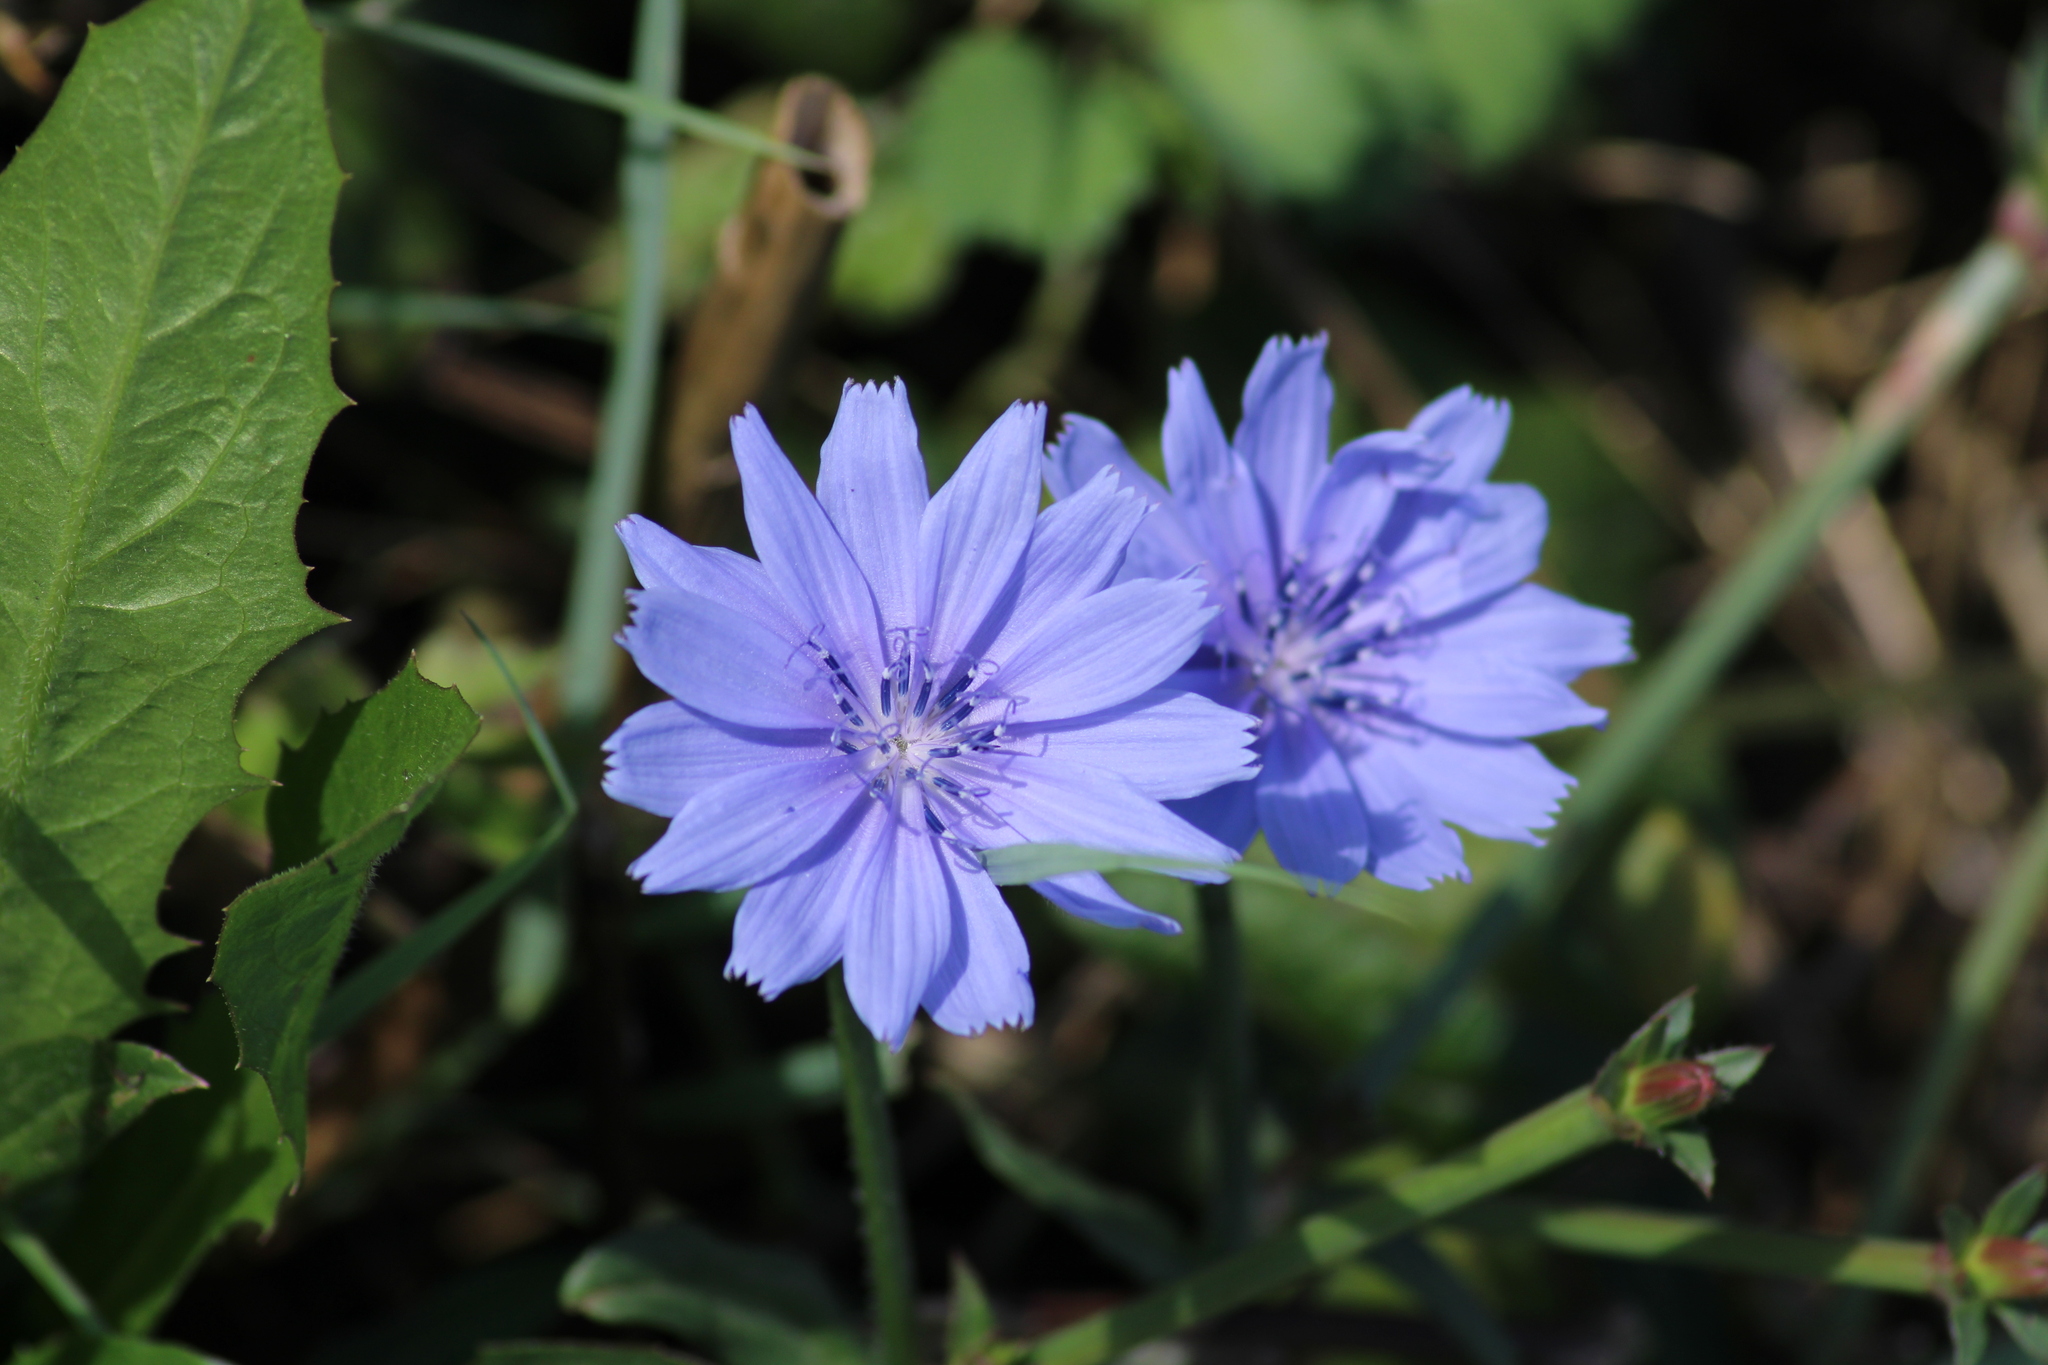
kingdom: Plantae
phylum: Tracheophyta
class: Magnoliopsida
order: Asterales
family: Asteraceae
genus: Cichorium
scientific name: Cichorium intybus
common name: Chicory
